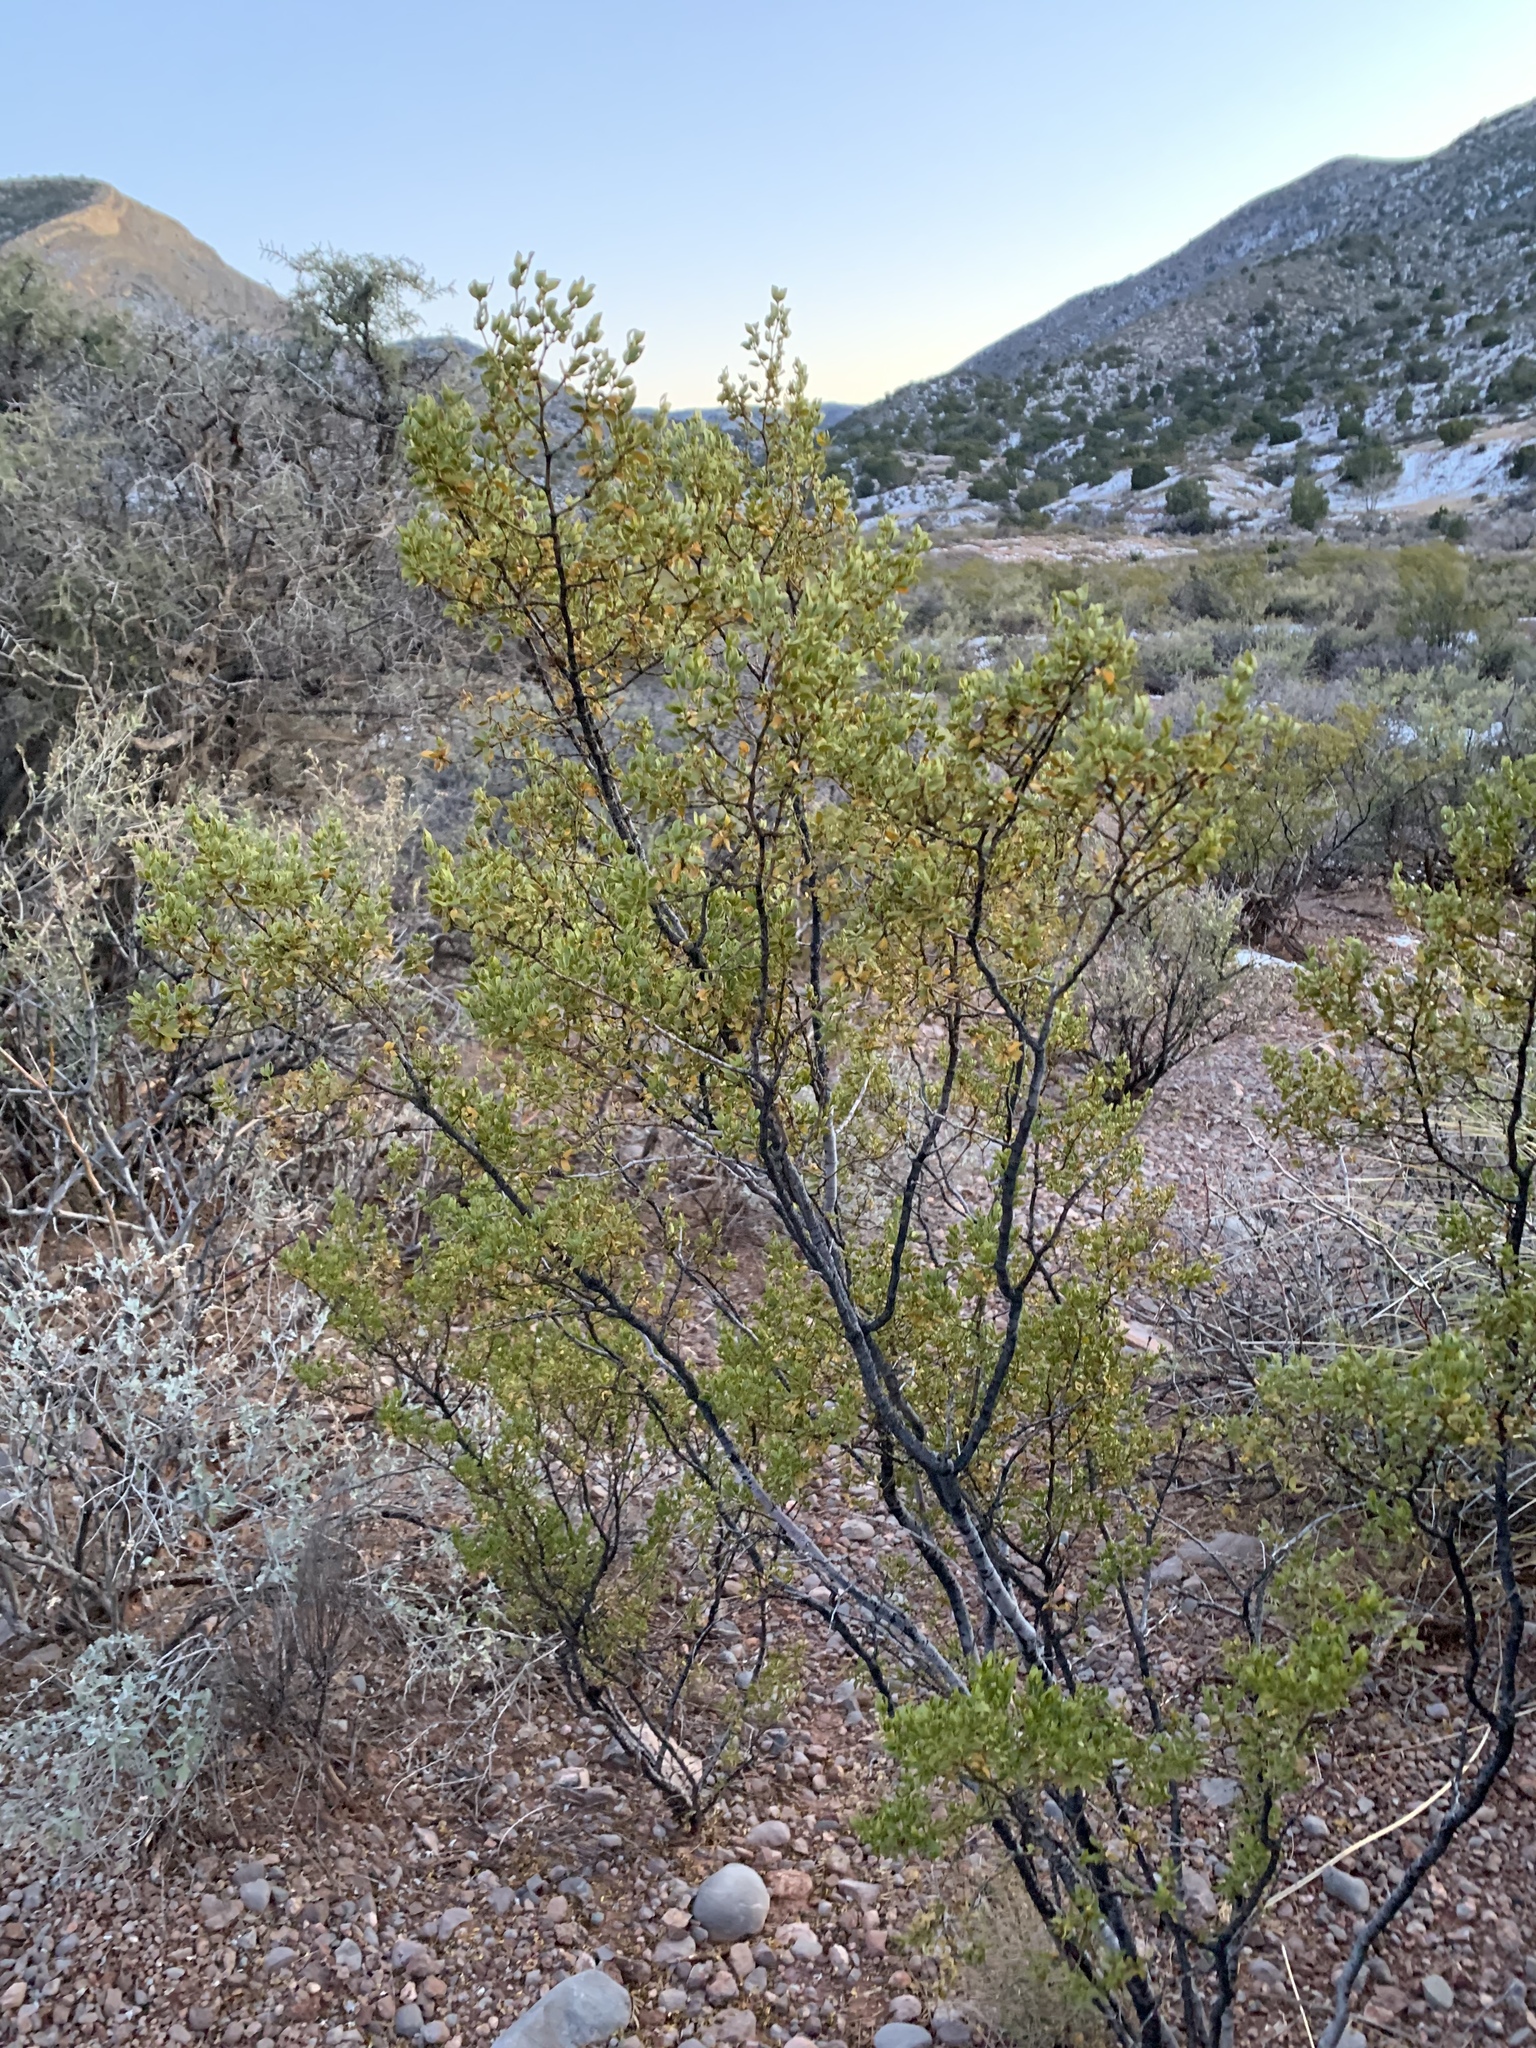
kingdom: Plantae
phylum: Tracheophyta
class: Magnoliopsida
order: Zygophyllales
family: Zygophyllaceae
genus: Larrea
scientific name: Larrea tridentata
